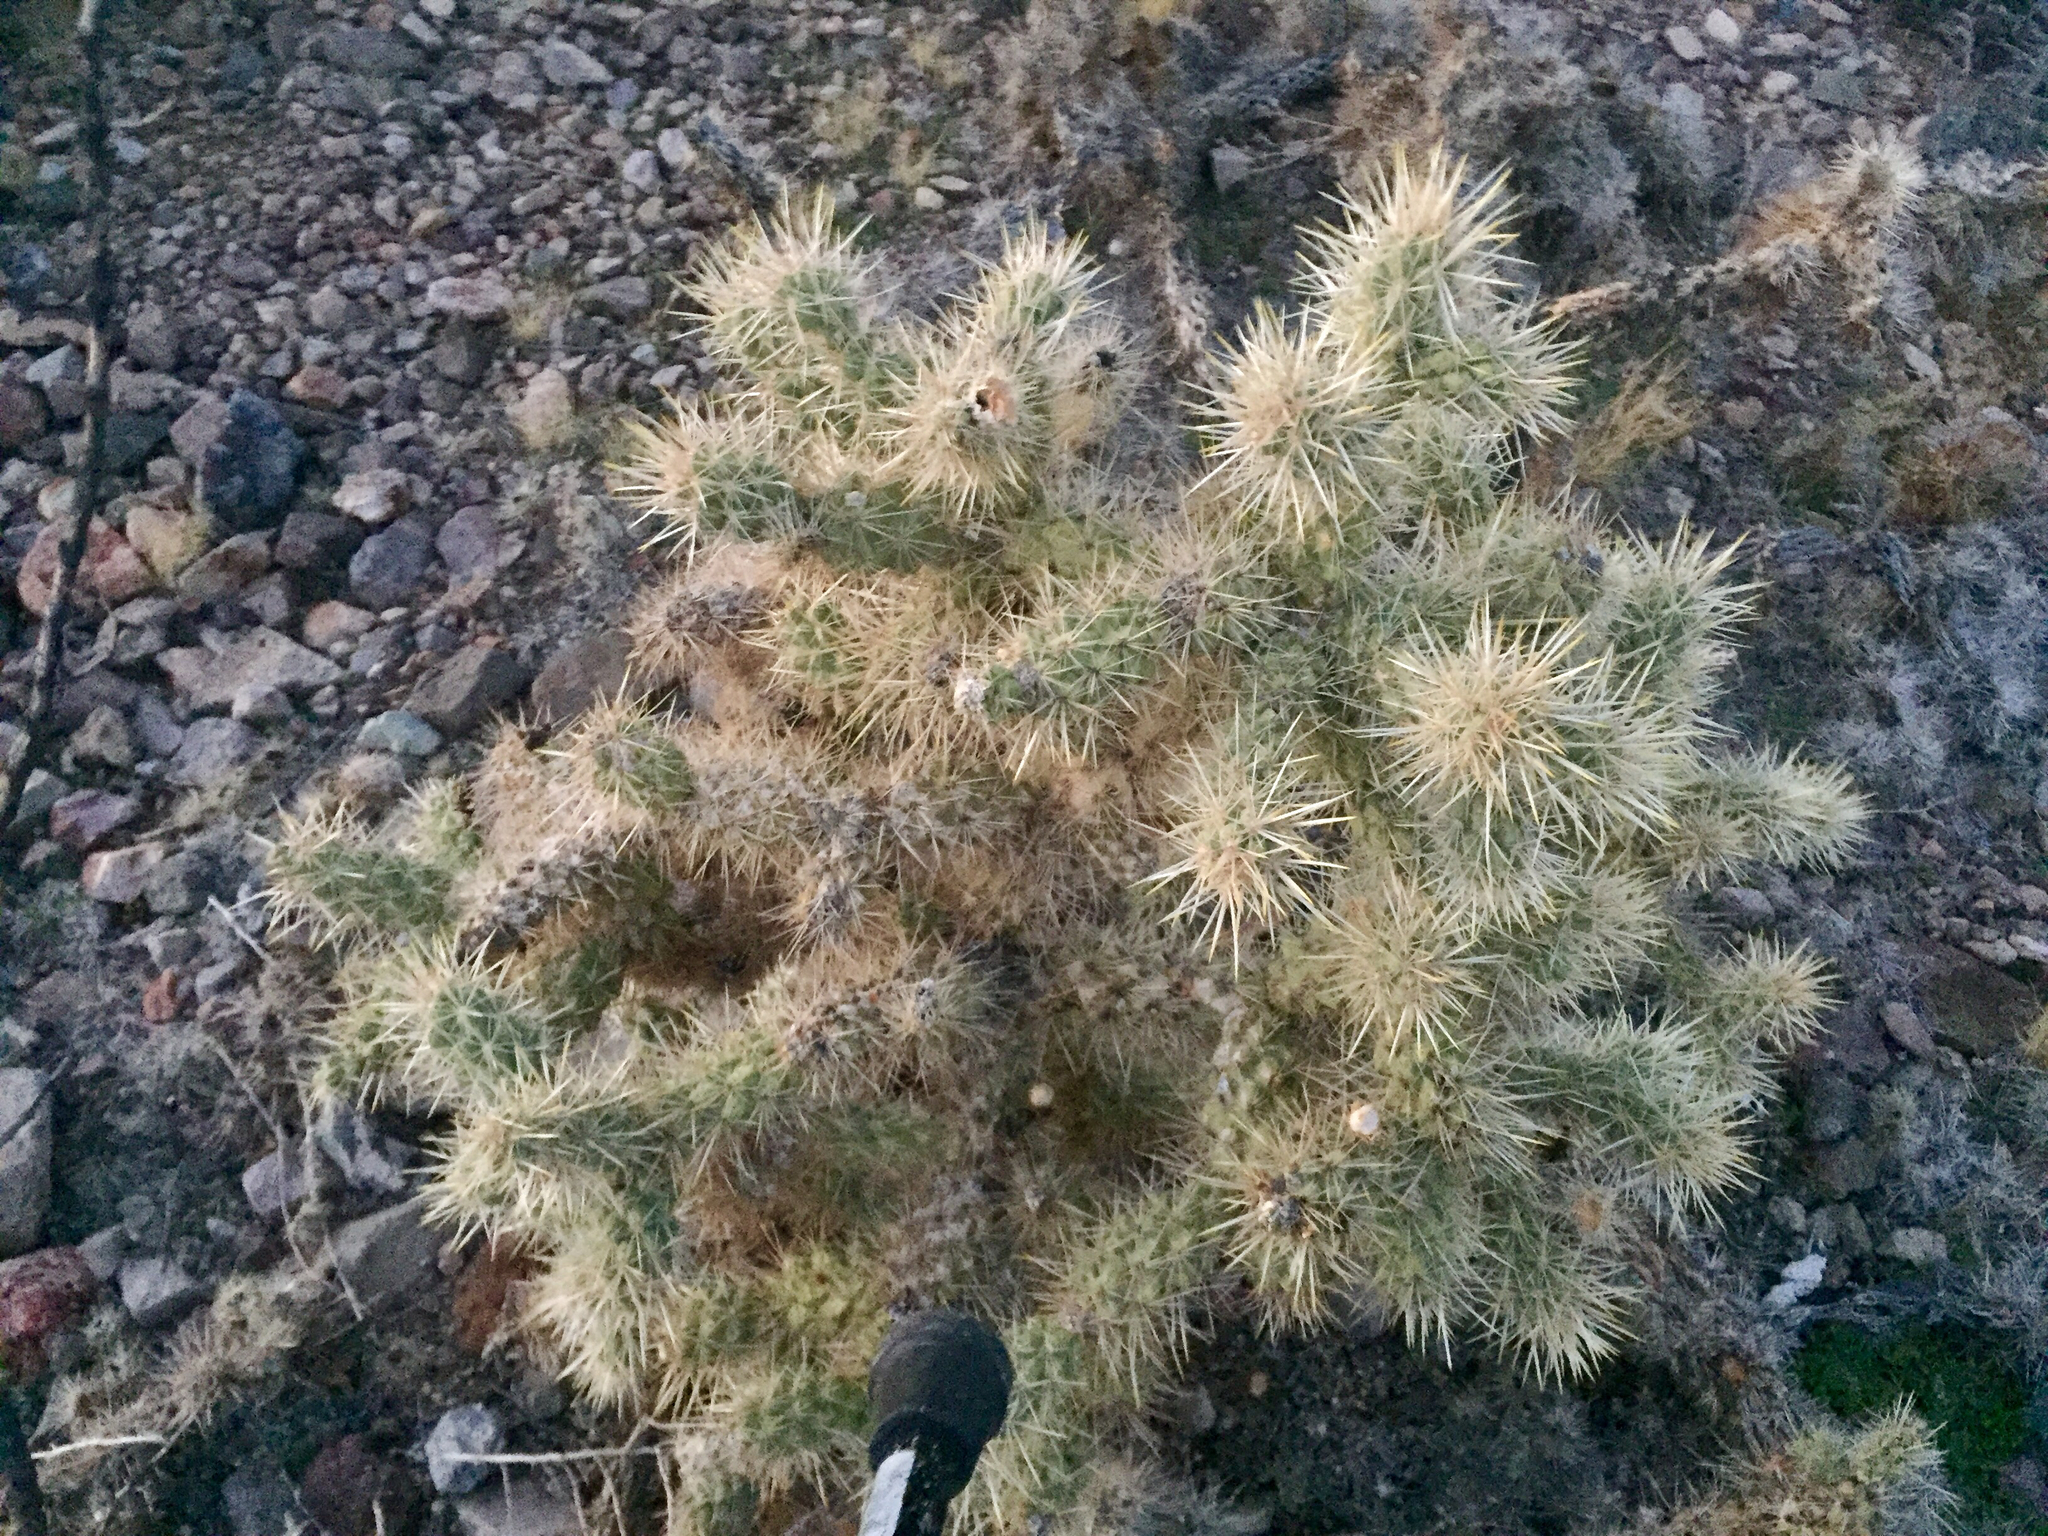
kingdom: Plantae
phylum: Tracheophyta
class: Magnoliopsida
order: Caryophyllales
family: Cactaceae
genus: Cylindropuntia
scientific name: Cylindropuntia echinocarpa
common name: Ground cholla
